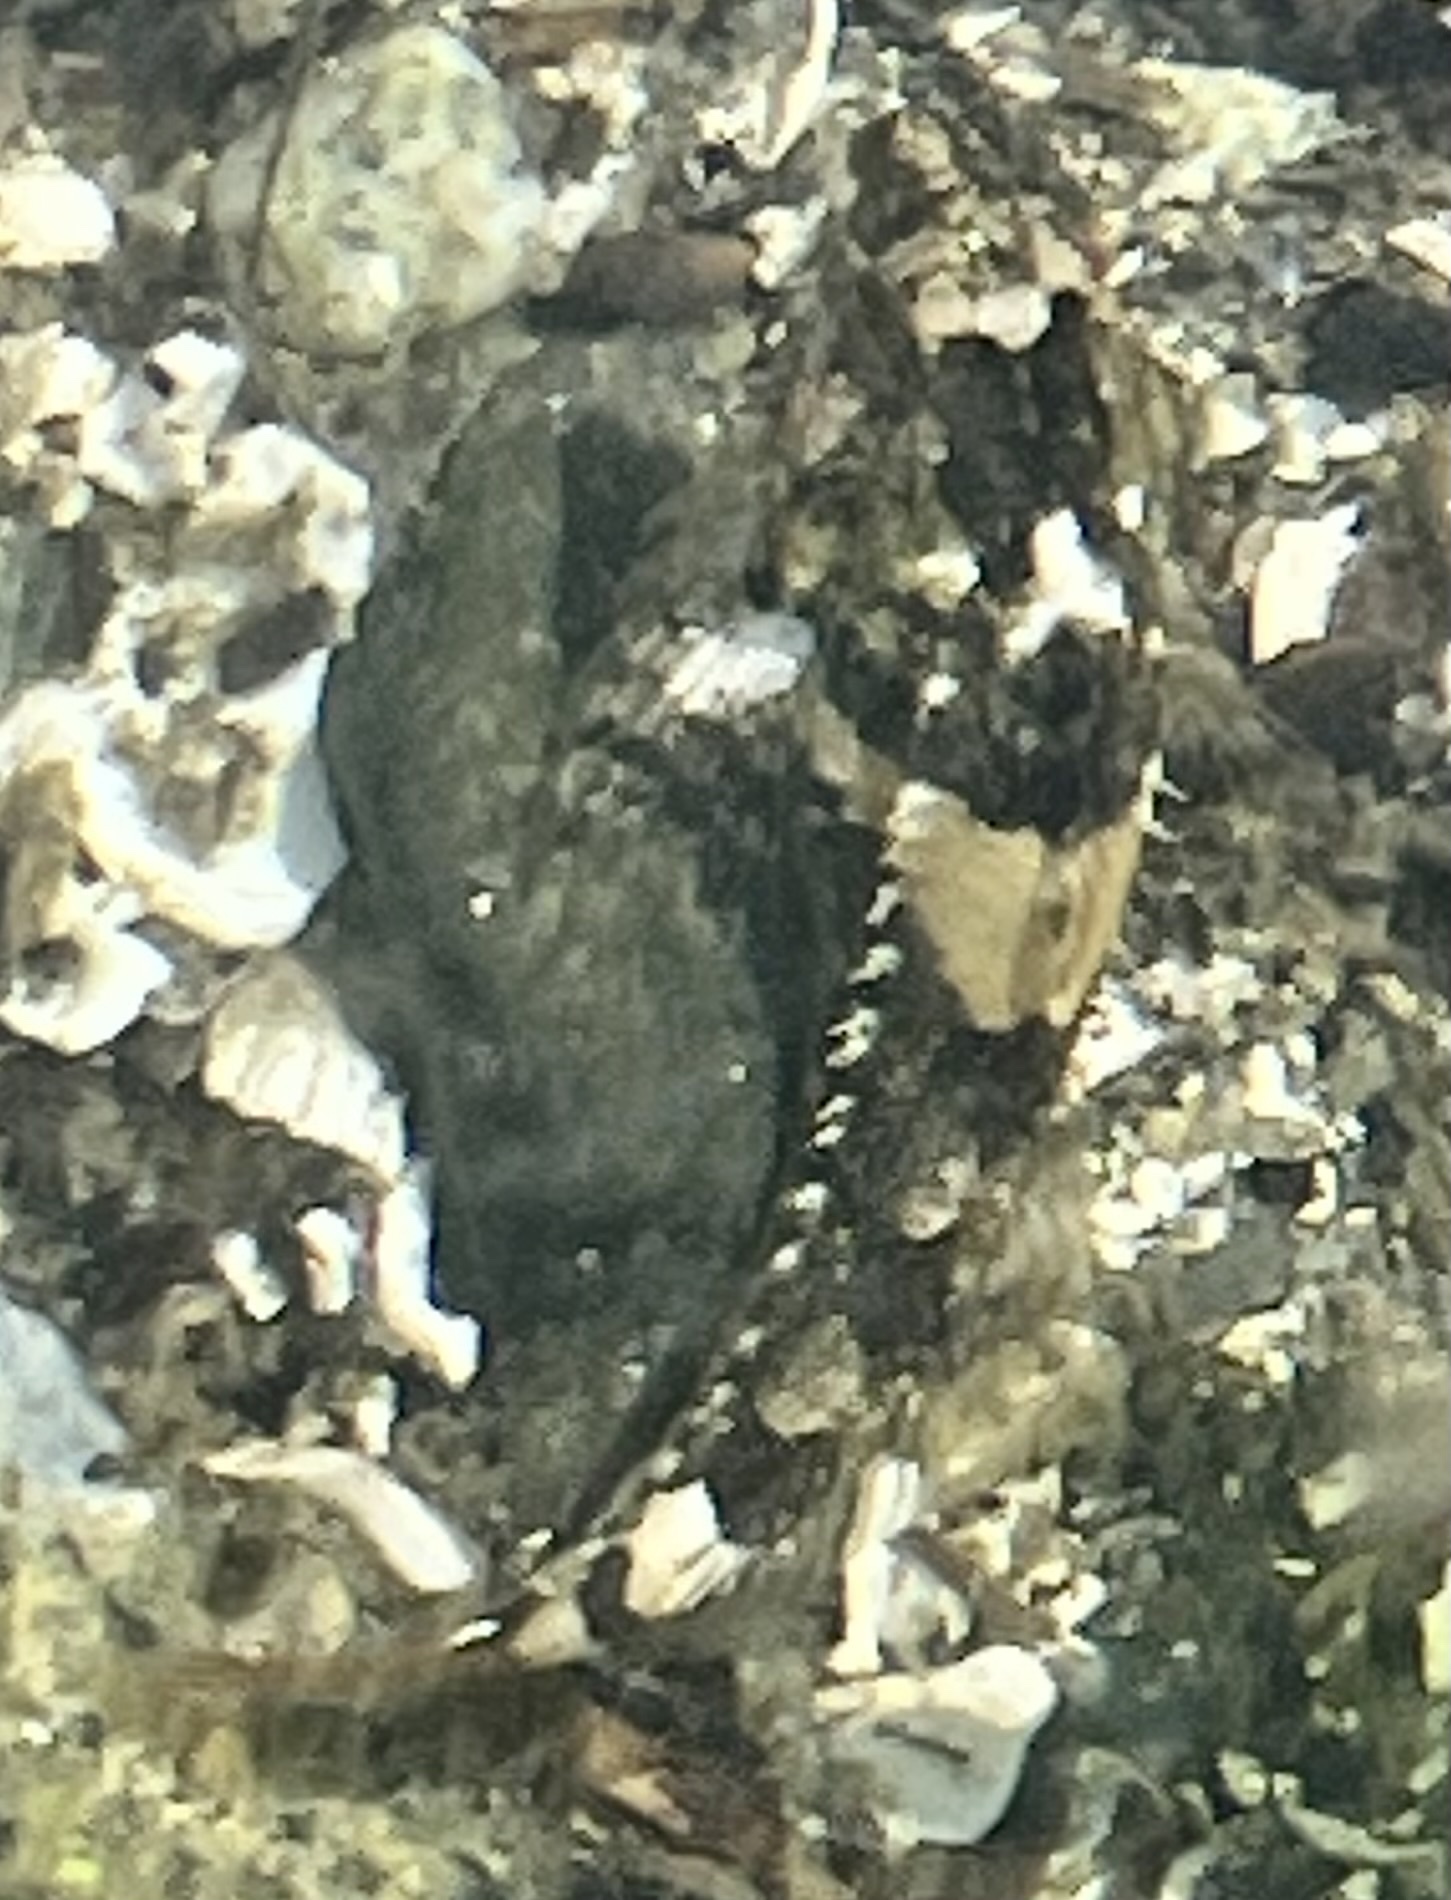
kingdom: Animalia
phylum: Chordata
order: Scorpaeniformes
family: Cottidae
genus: Oligocottus
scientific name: Oligocottus maculosus
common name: Tidepool sculpin
